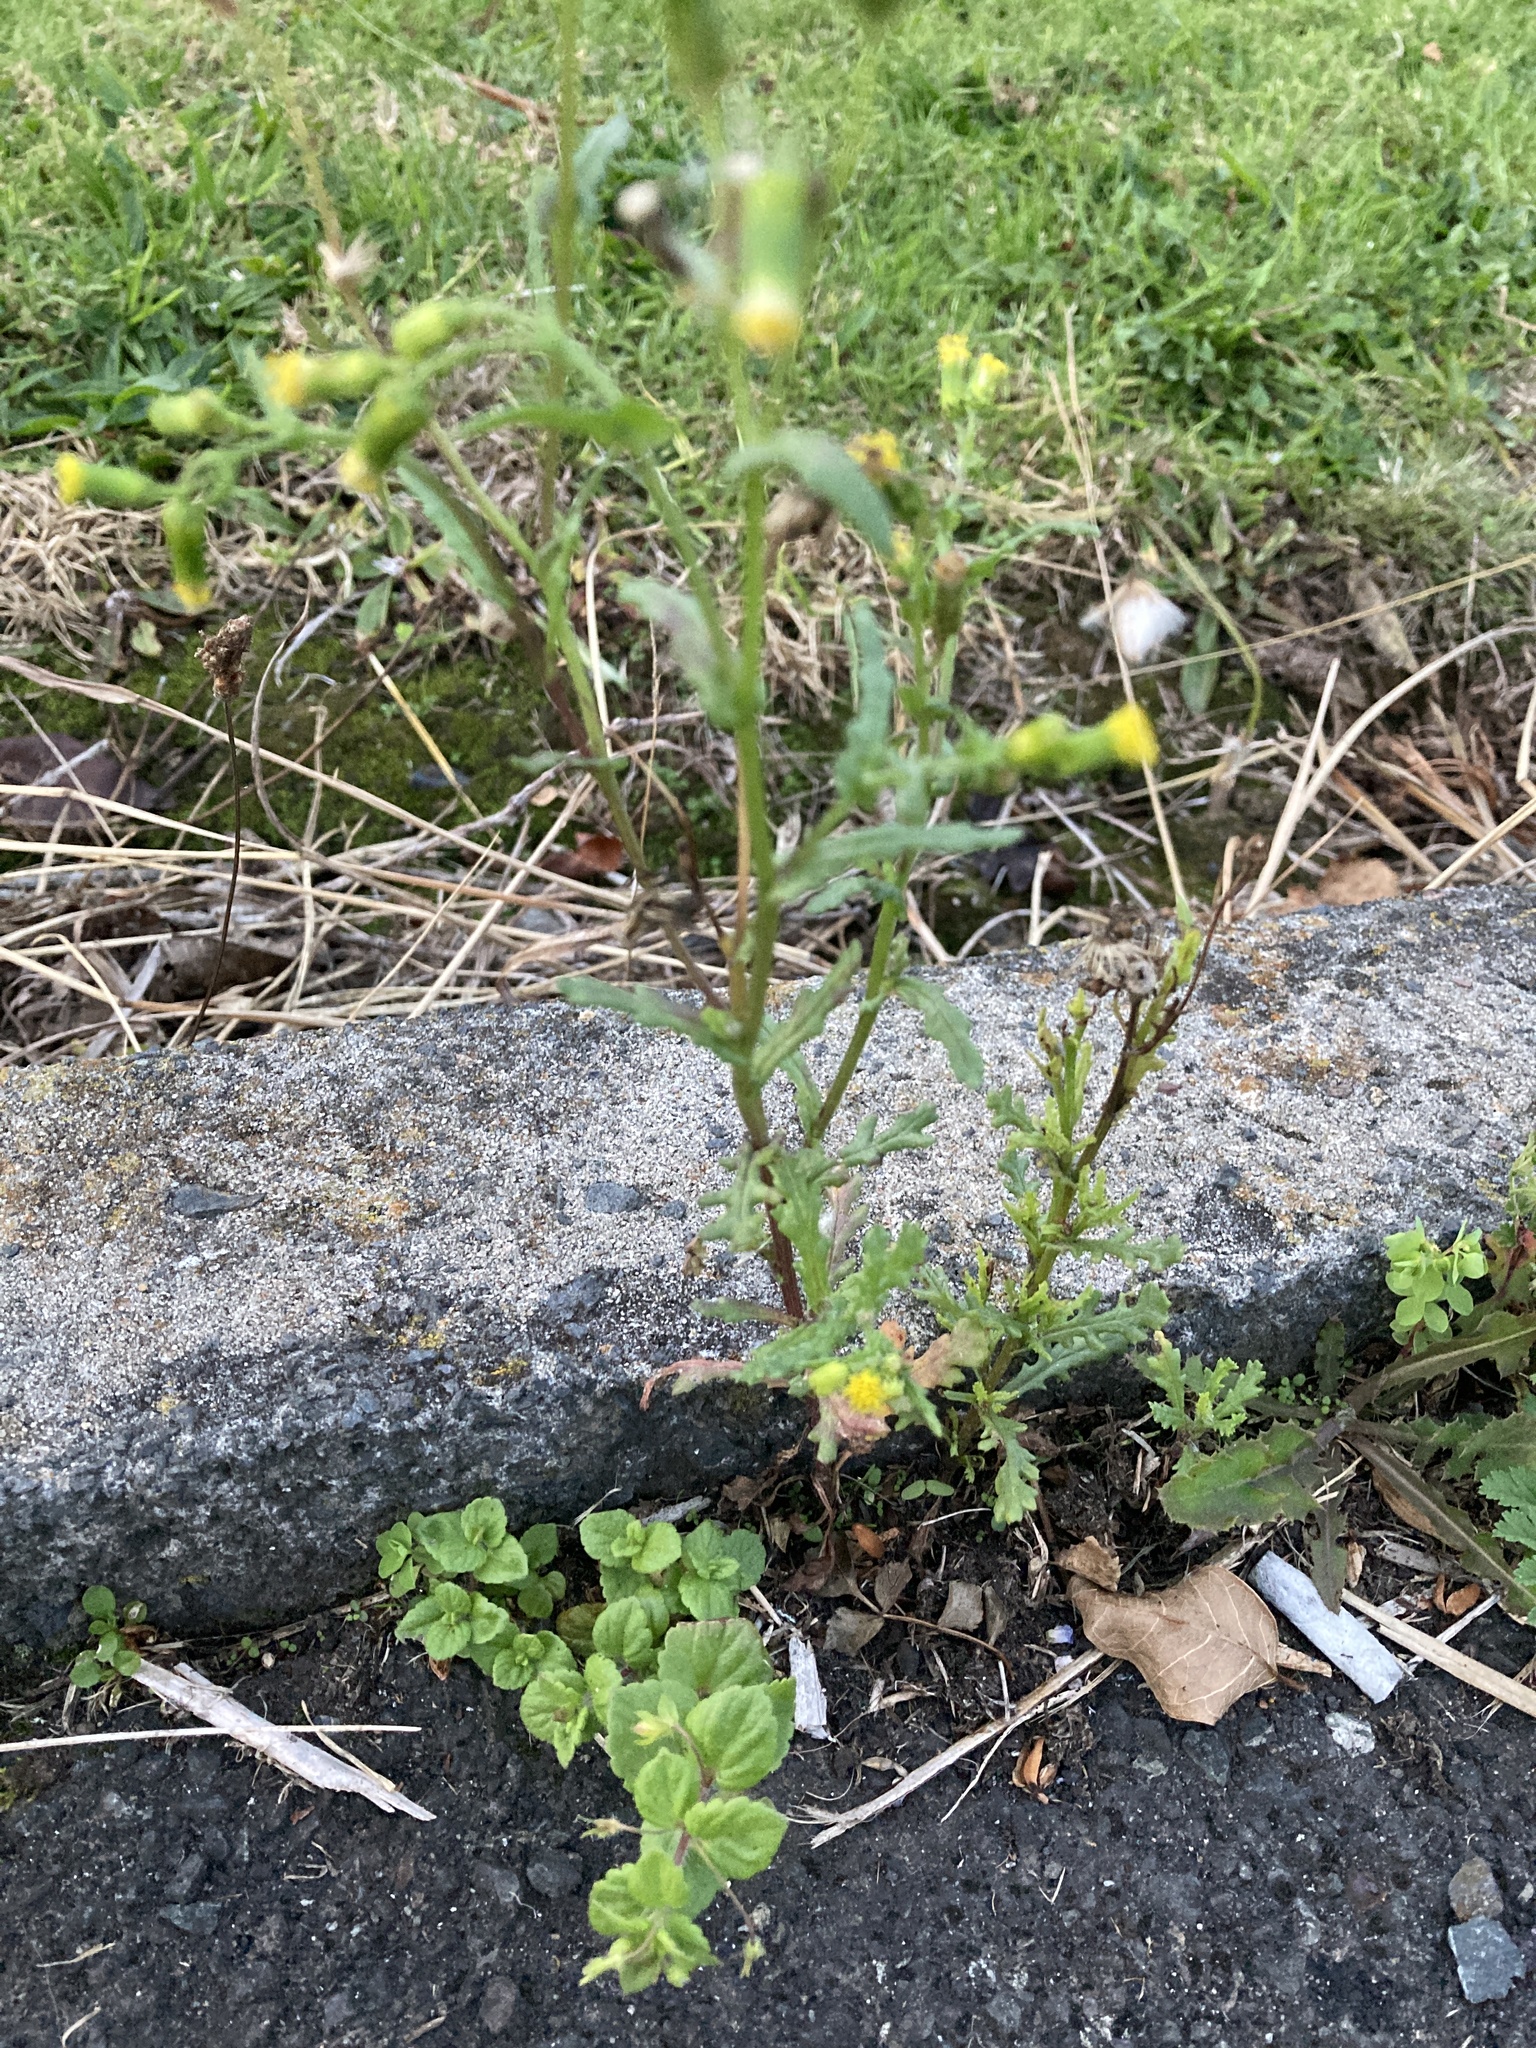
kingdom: Plantae
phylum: Tracheophyta
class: Magnoliopsida
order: Asterales
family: Asteraceae
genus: Senecio
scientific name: Senecio vulgaris
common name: Old-man-in-the-spring
